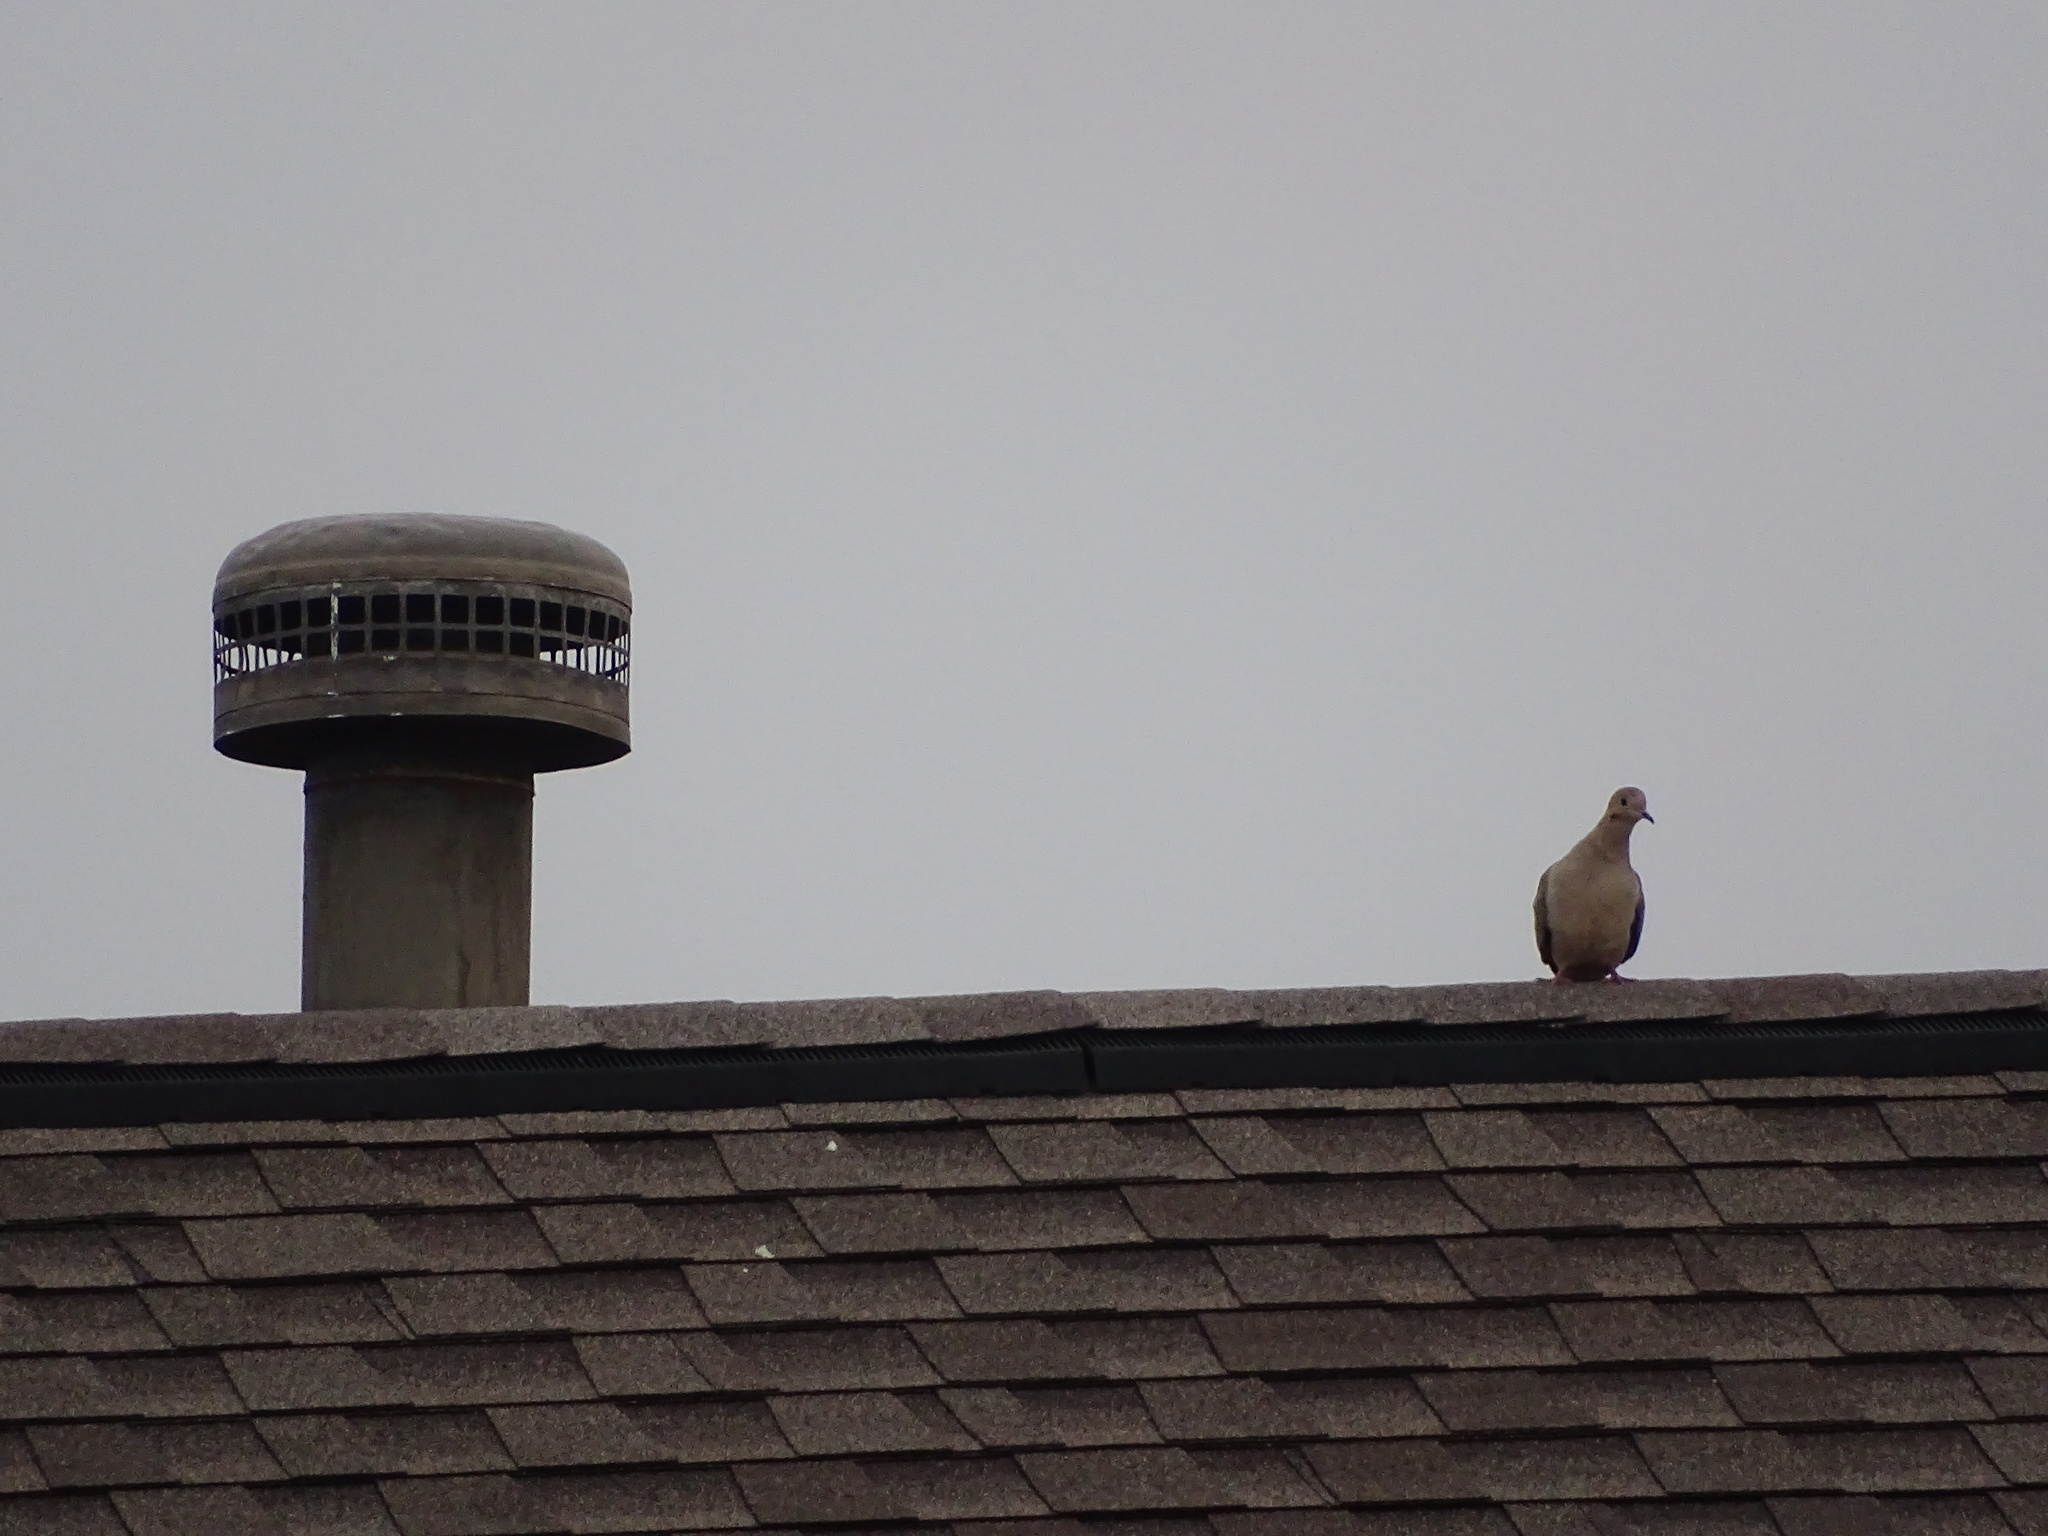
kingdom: Animalia
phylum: Chordata
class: Aves
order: Columbiformes
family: Columbidae
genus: Zenaida
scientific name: Zenaida macroura
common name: Mourning dove
